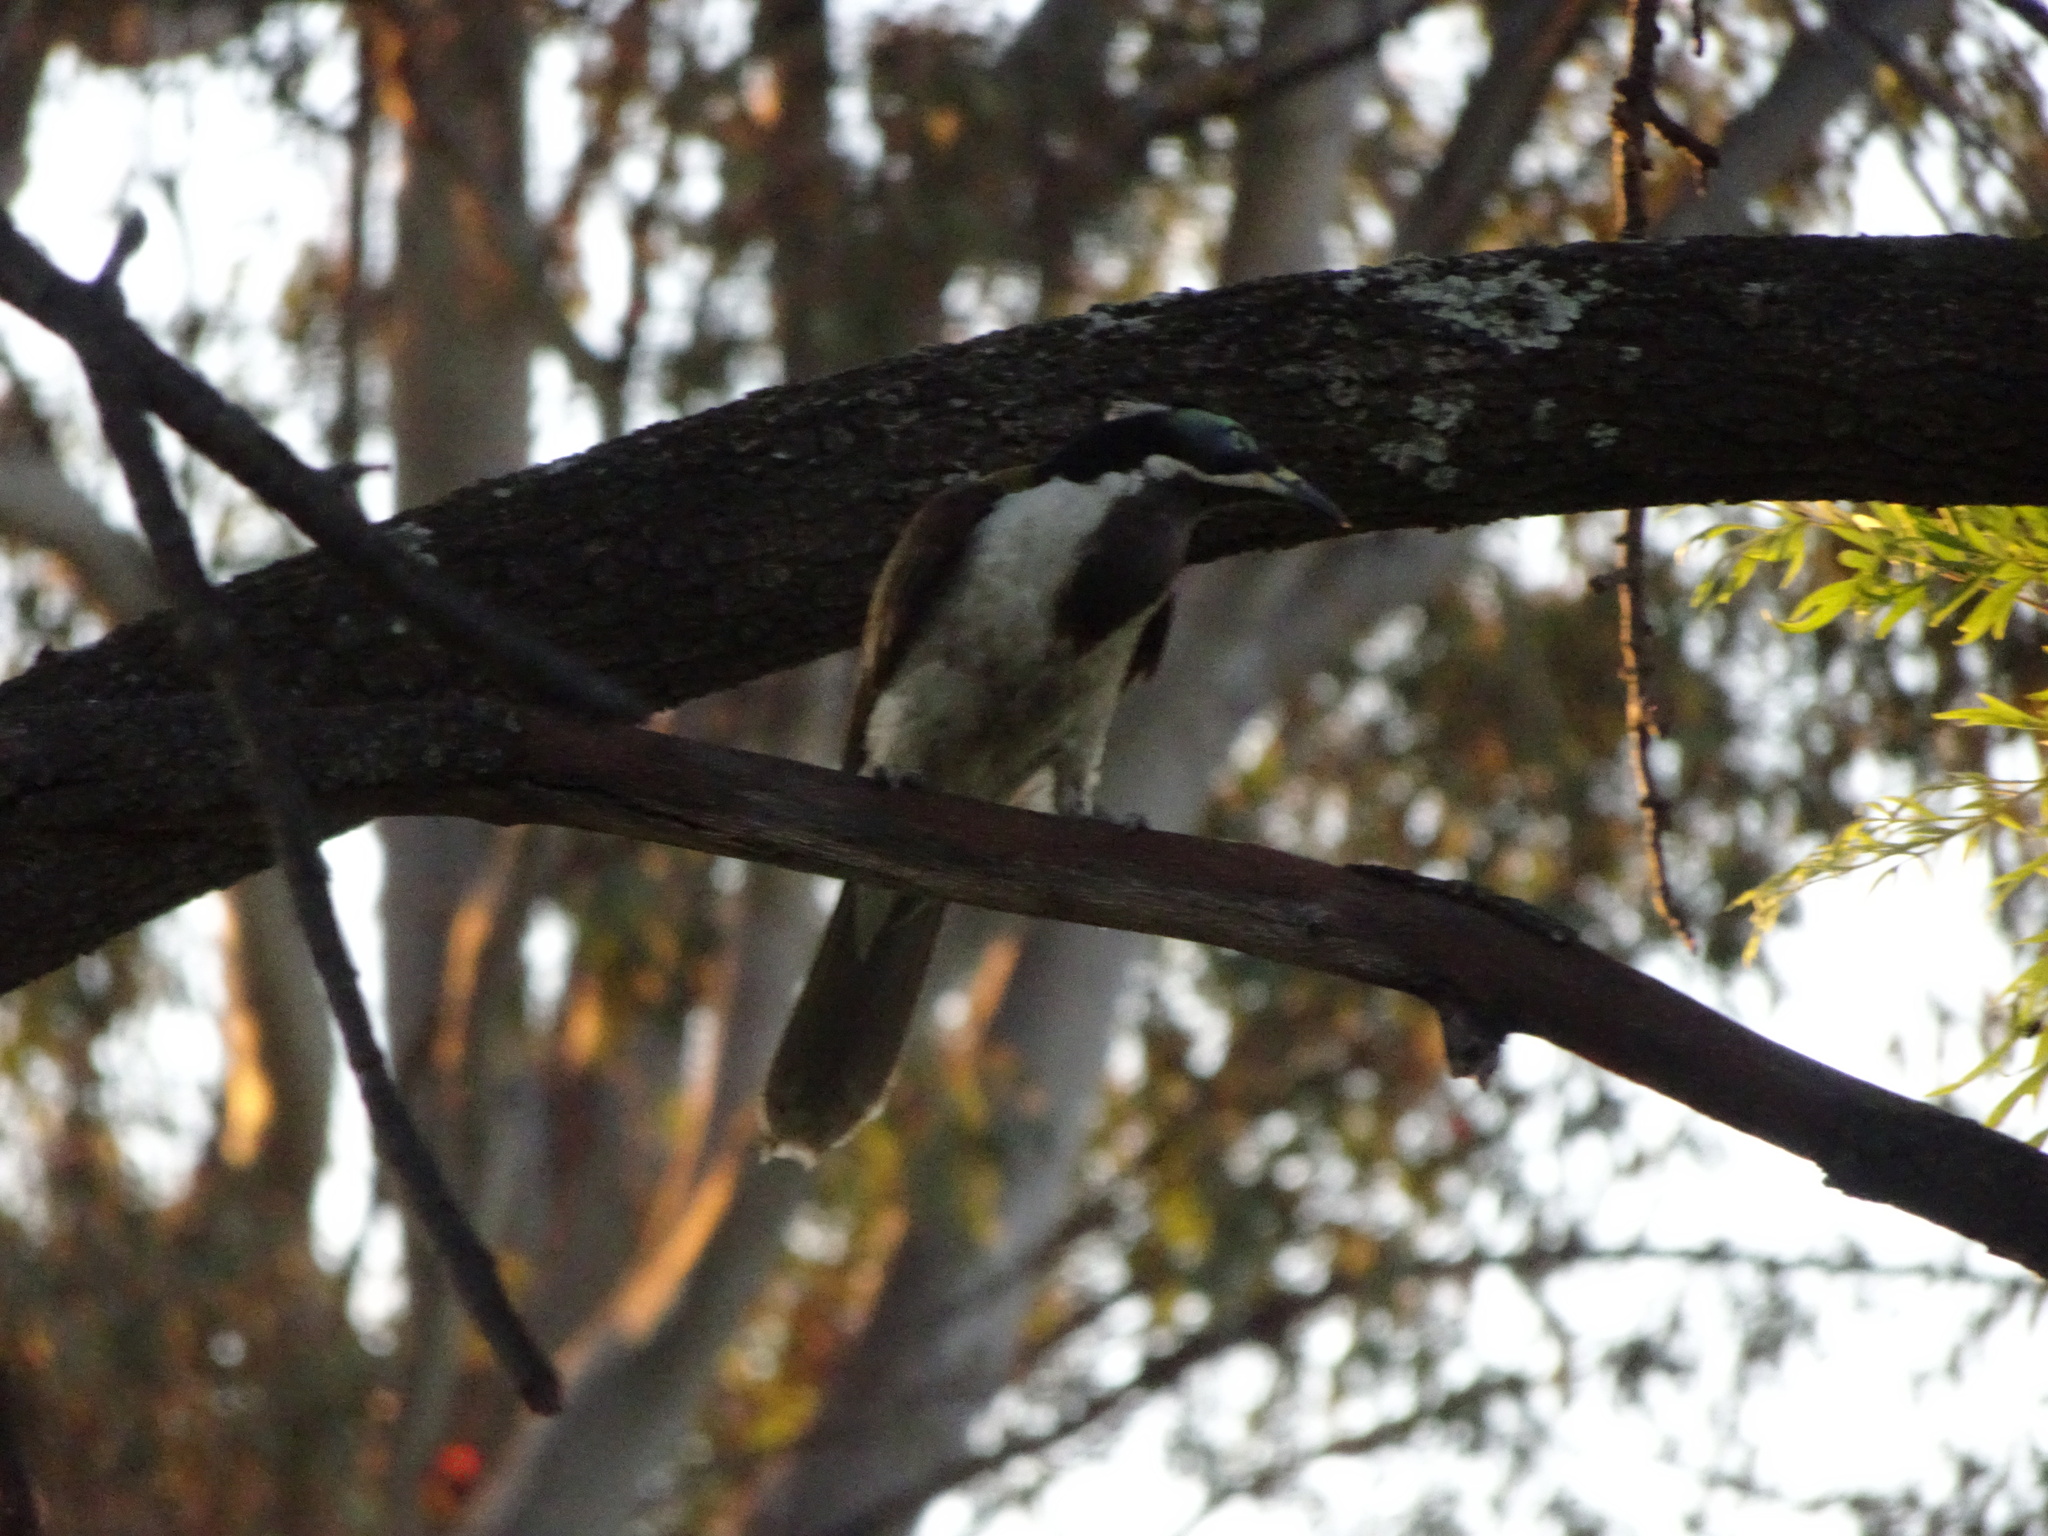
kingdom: Animalia
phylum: Chordata
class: Aves
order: Passeriformes
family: Meliphagidae
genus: Entomyzon
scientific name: Entomyzon cyanotis
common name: Blue-faced honeyeater
